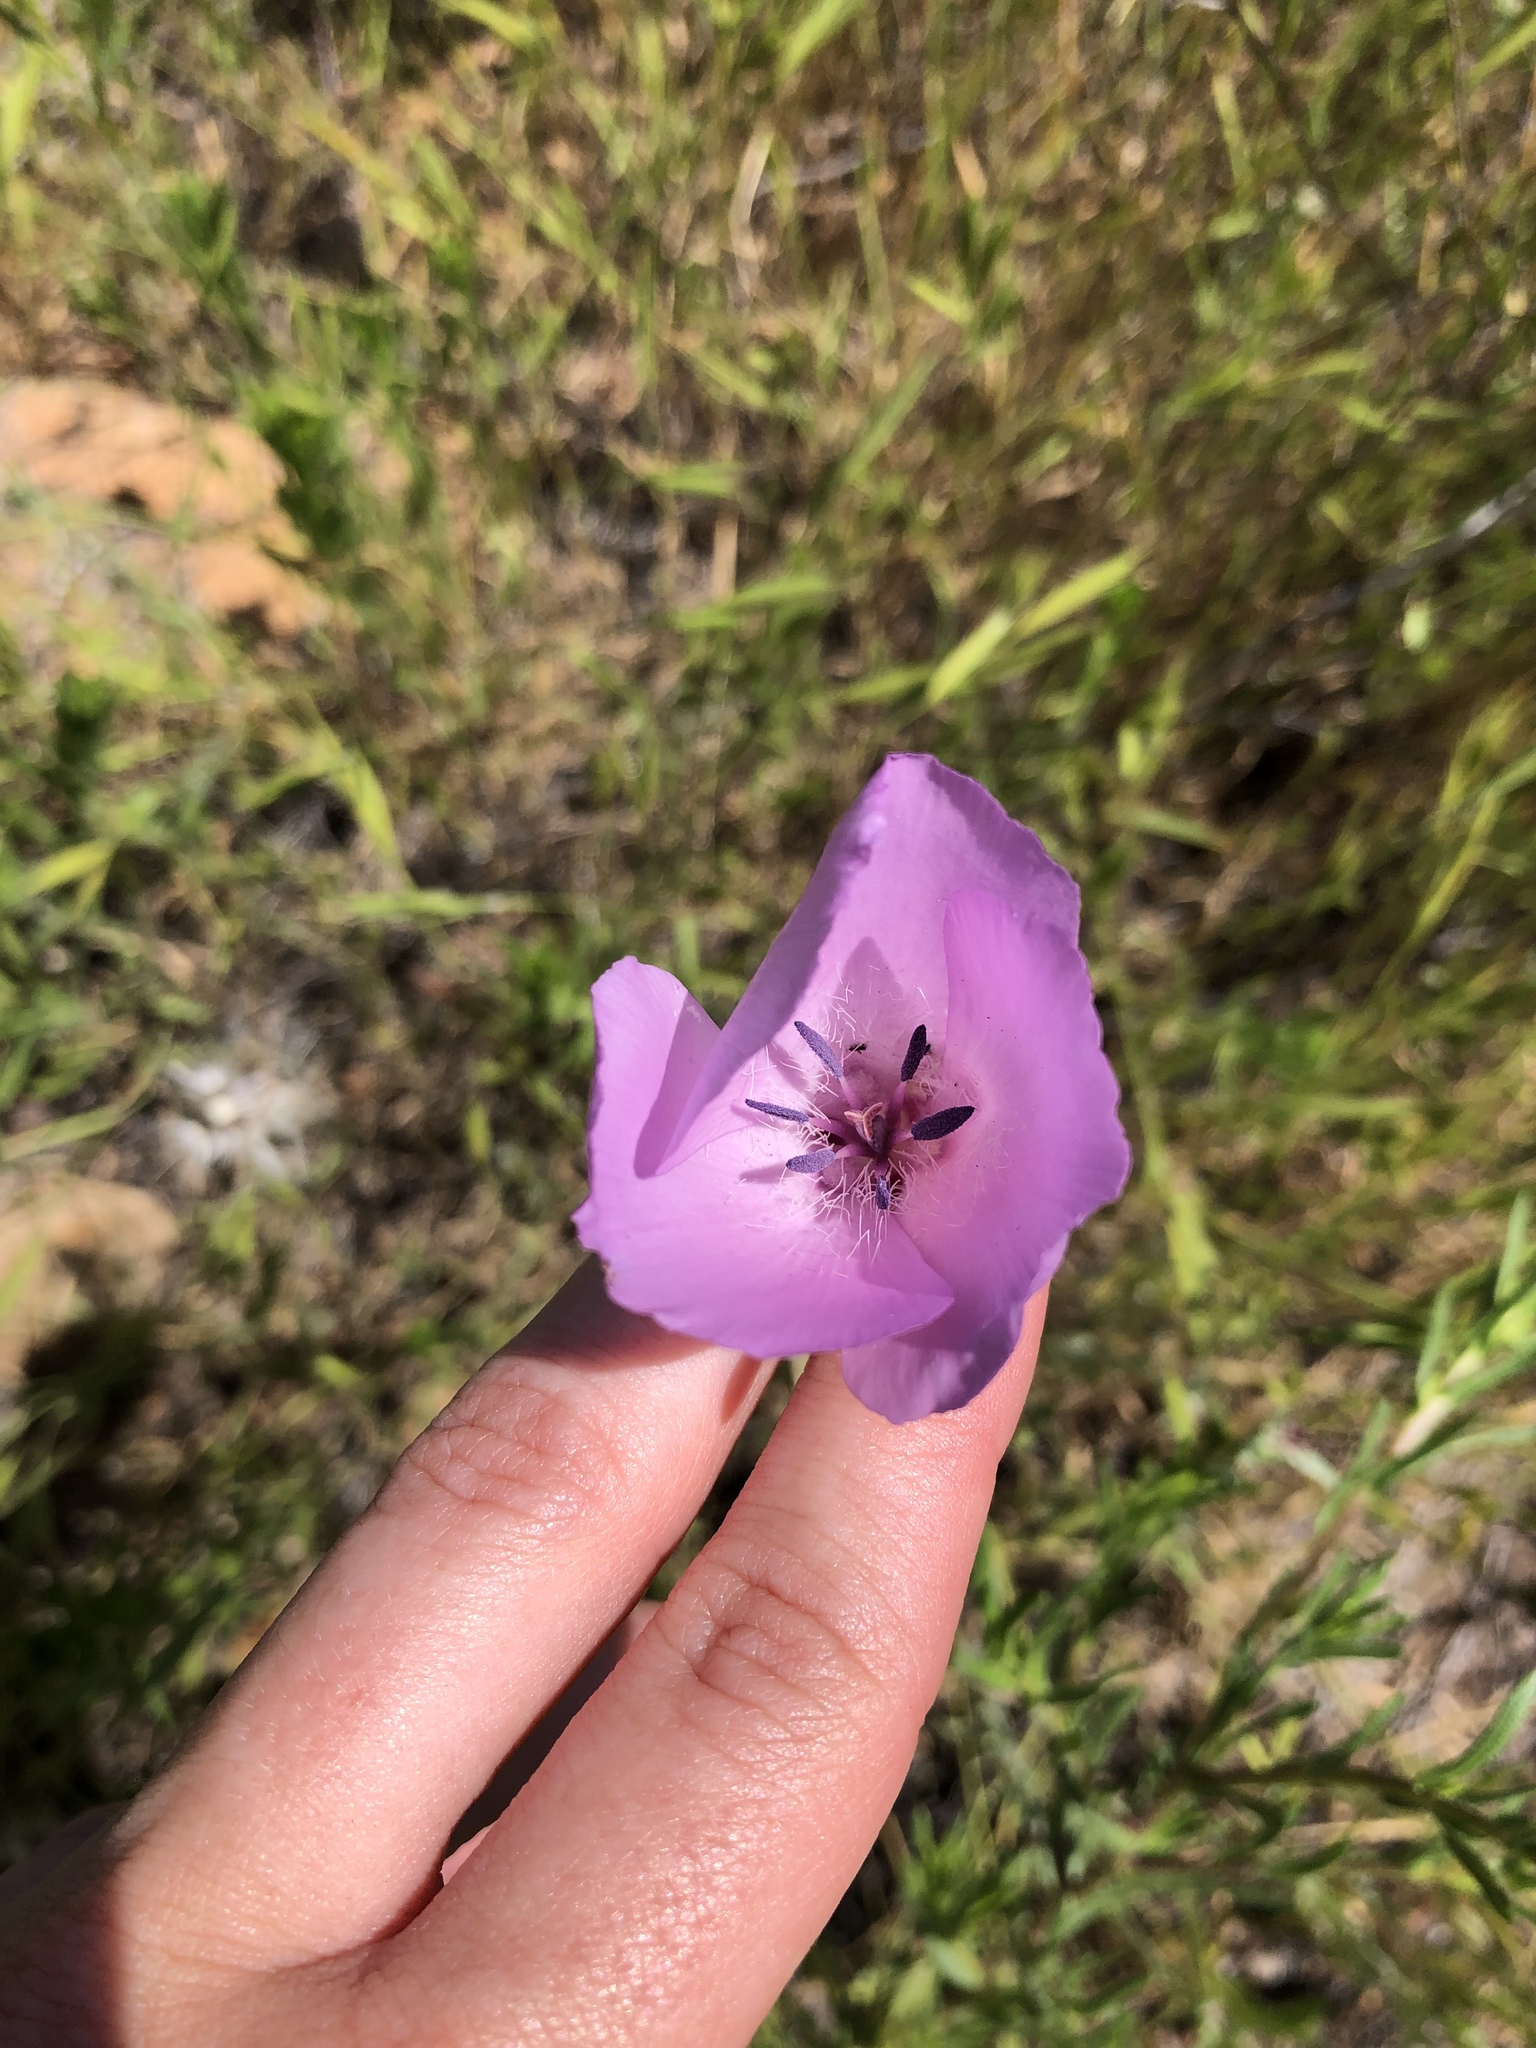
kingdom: Plantae
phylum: Tracheophyta
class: Liliopsida
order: Liliales
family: Liliaceae
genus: Calochortus
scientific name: Calochortus splendens
